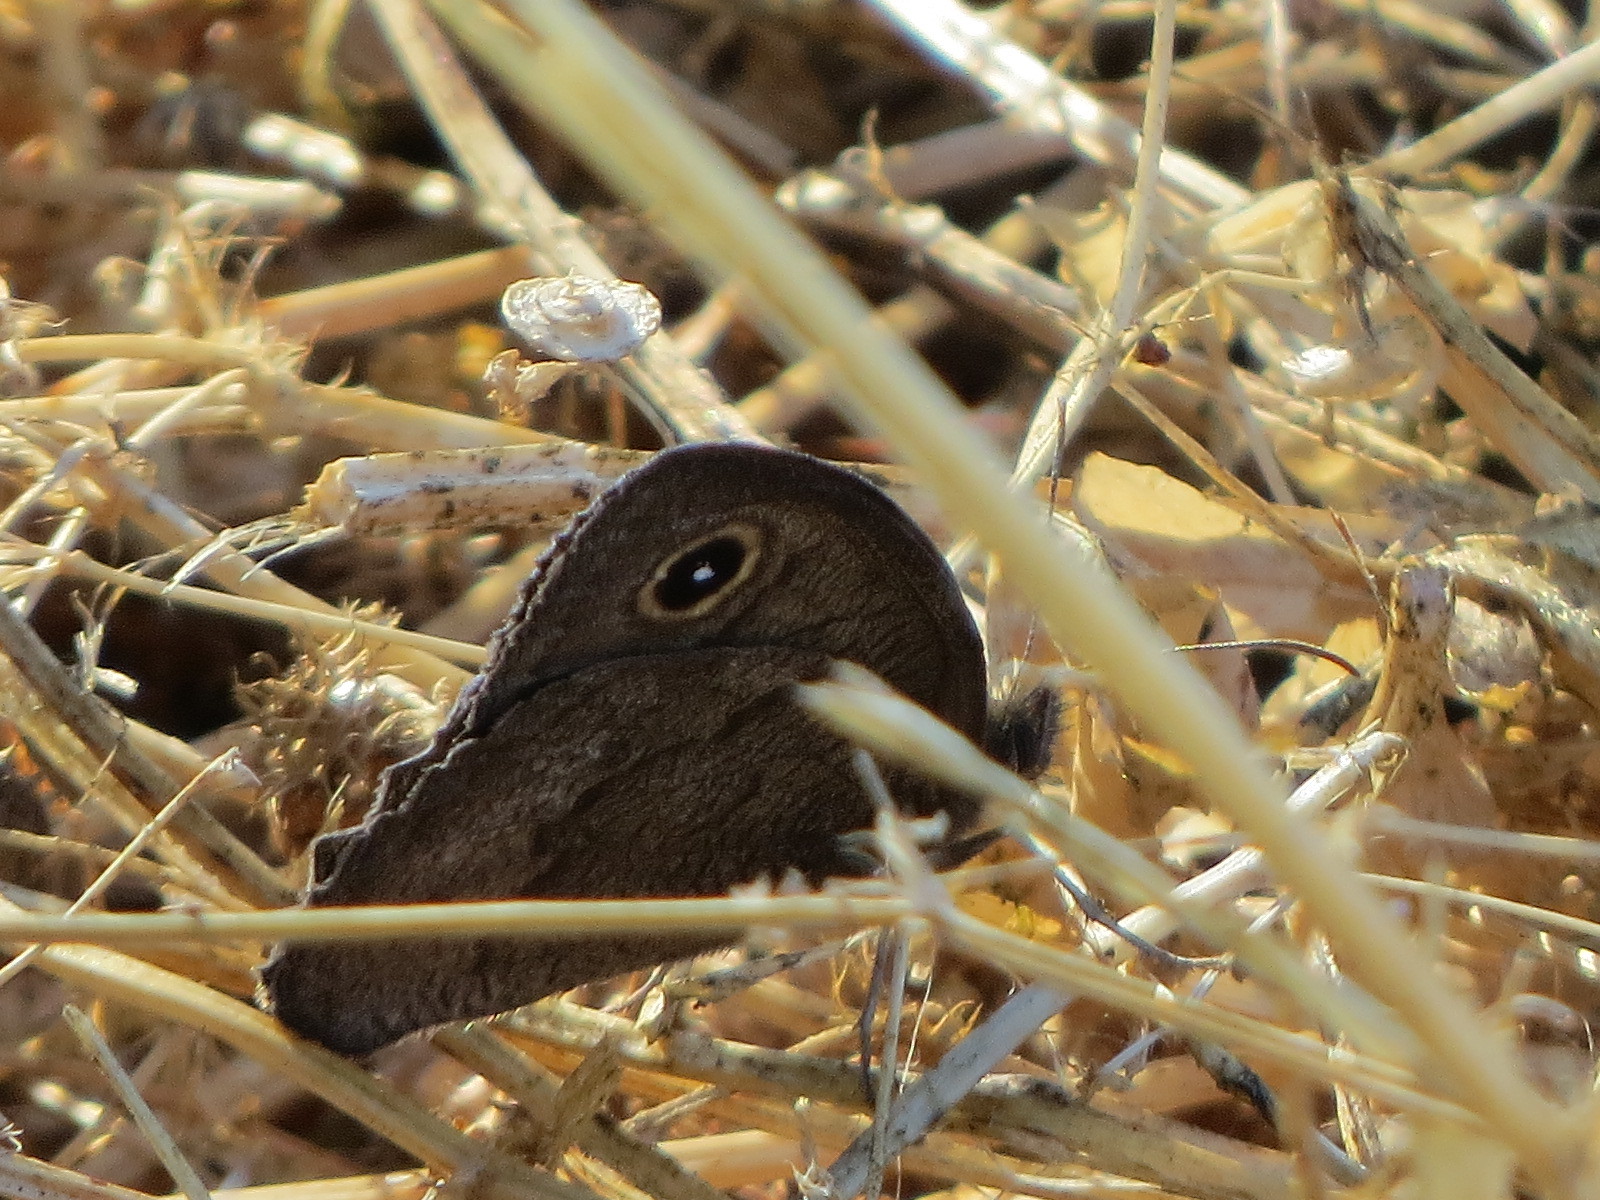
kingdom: Animalia
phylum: Arthropoda
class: Insecta
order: Lepidoptera
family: Nymphalidae
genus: Cercyonis
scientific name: Cercyonis pegala
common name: Common wood-nymph
